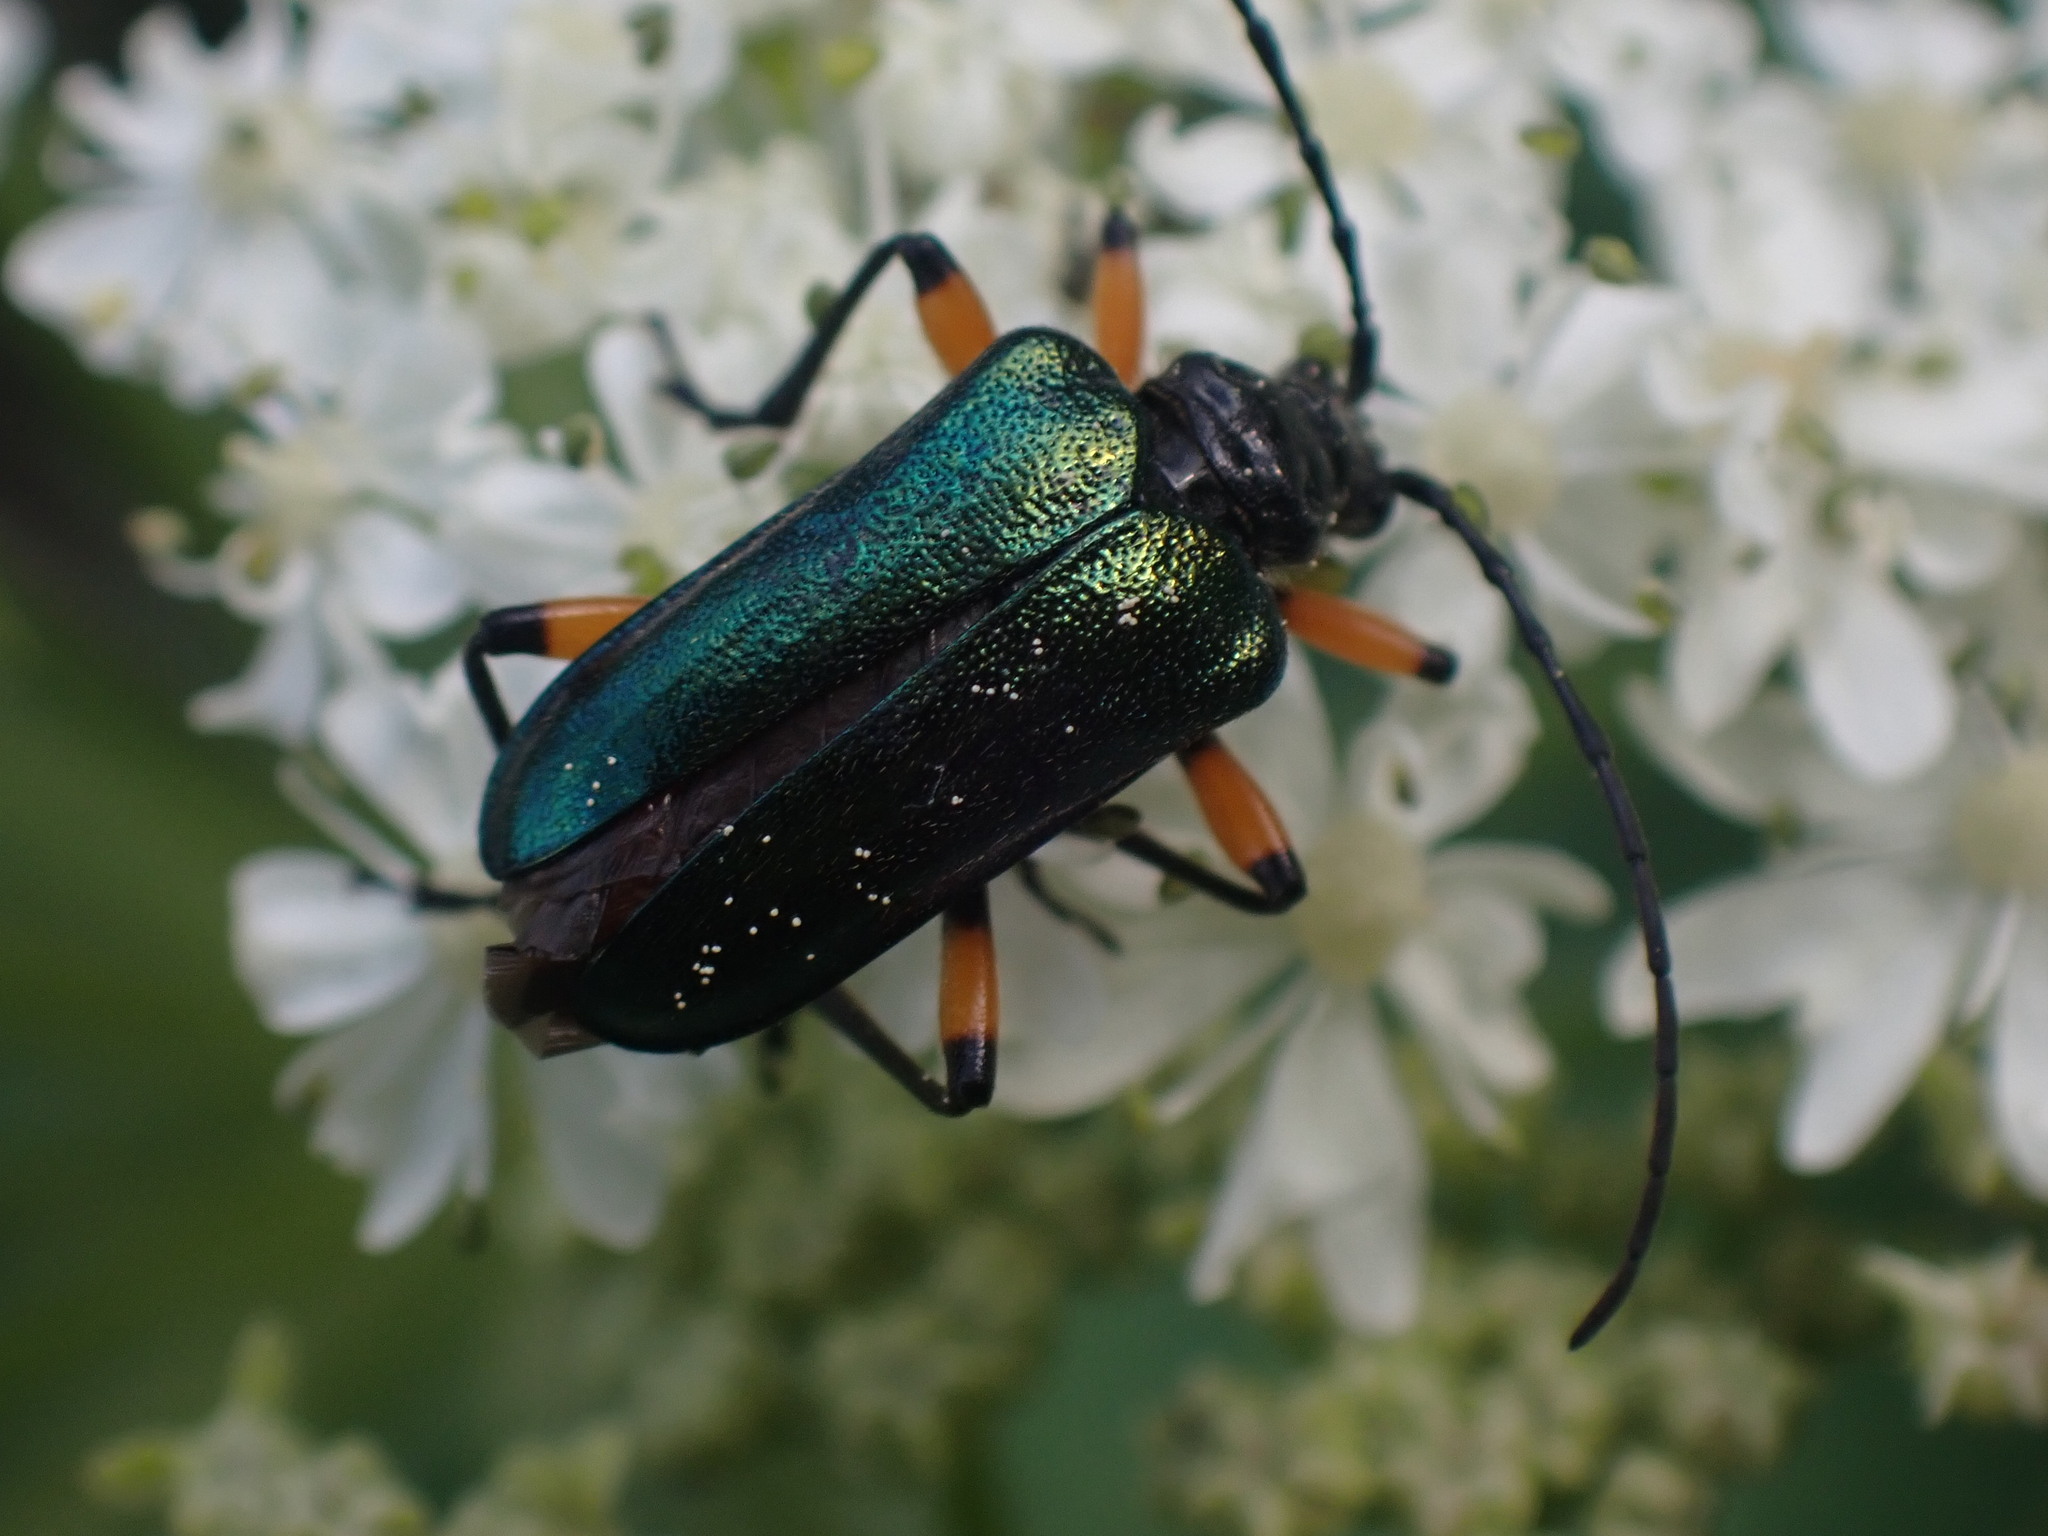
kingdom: Animalia
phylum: Arthropoda
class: Insecta
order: Coleoptera
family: Cerambycidae
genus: Pseudogaurotina
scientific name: Pseudogaurotina cressoni
